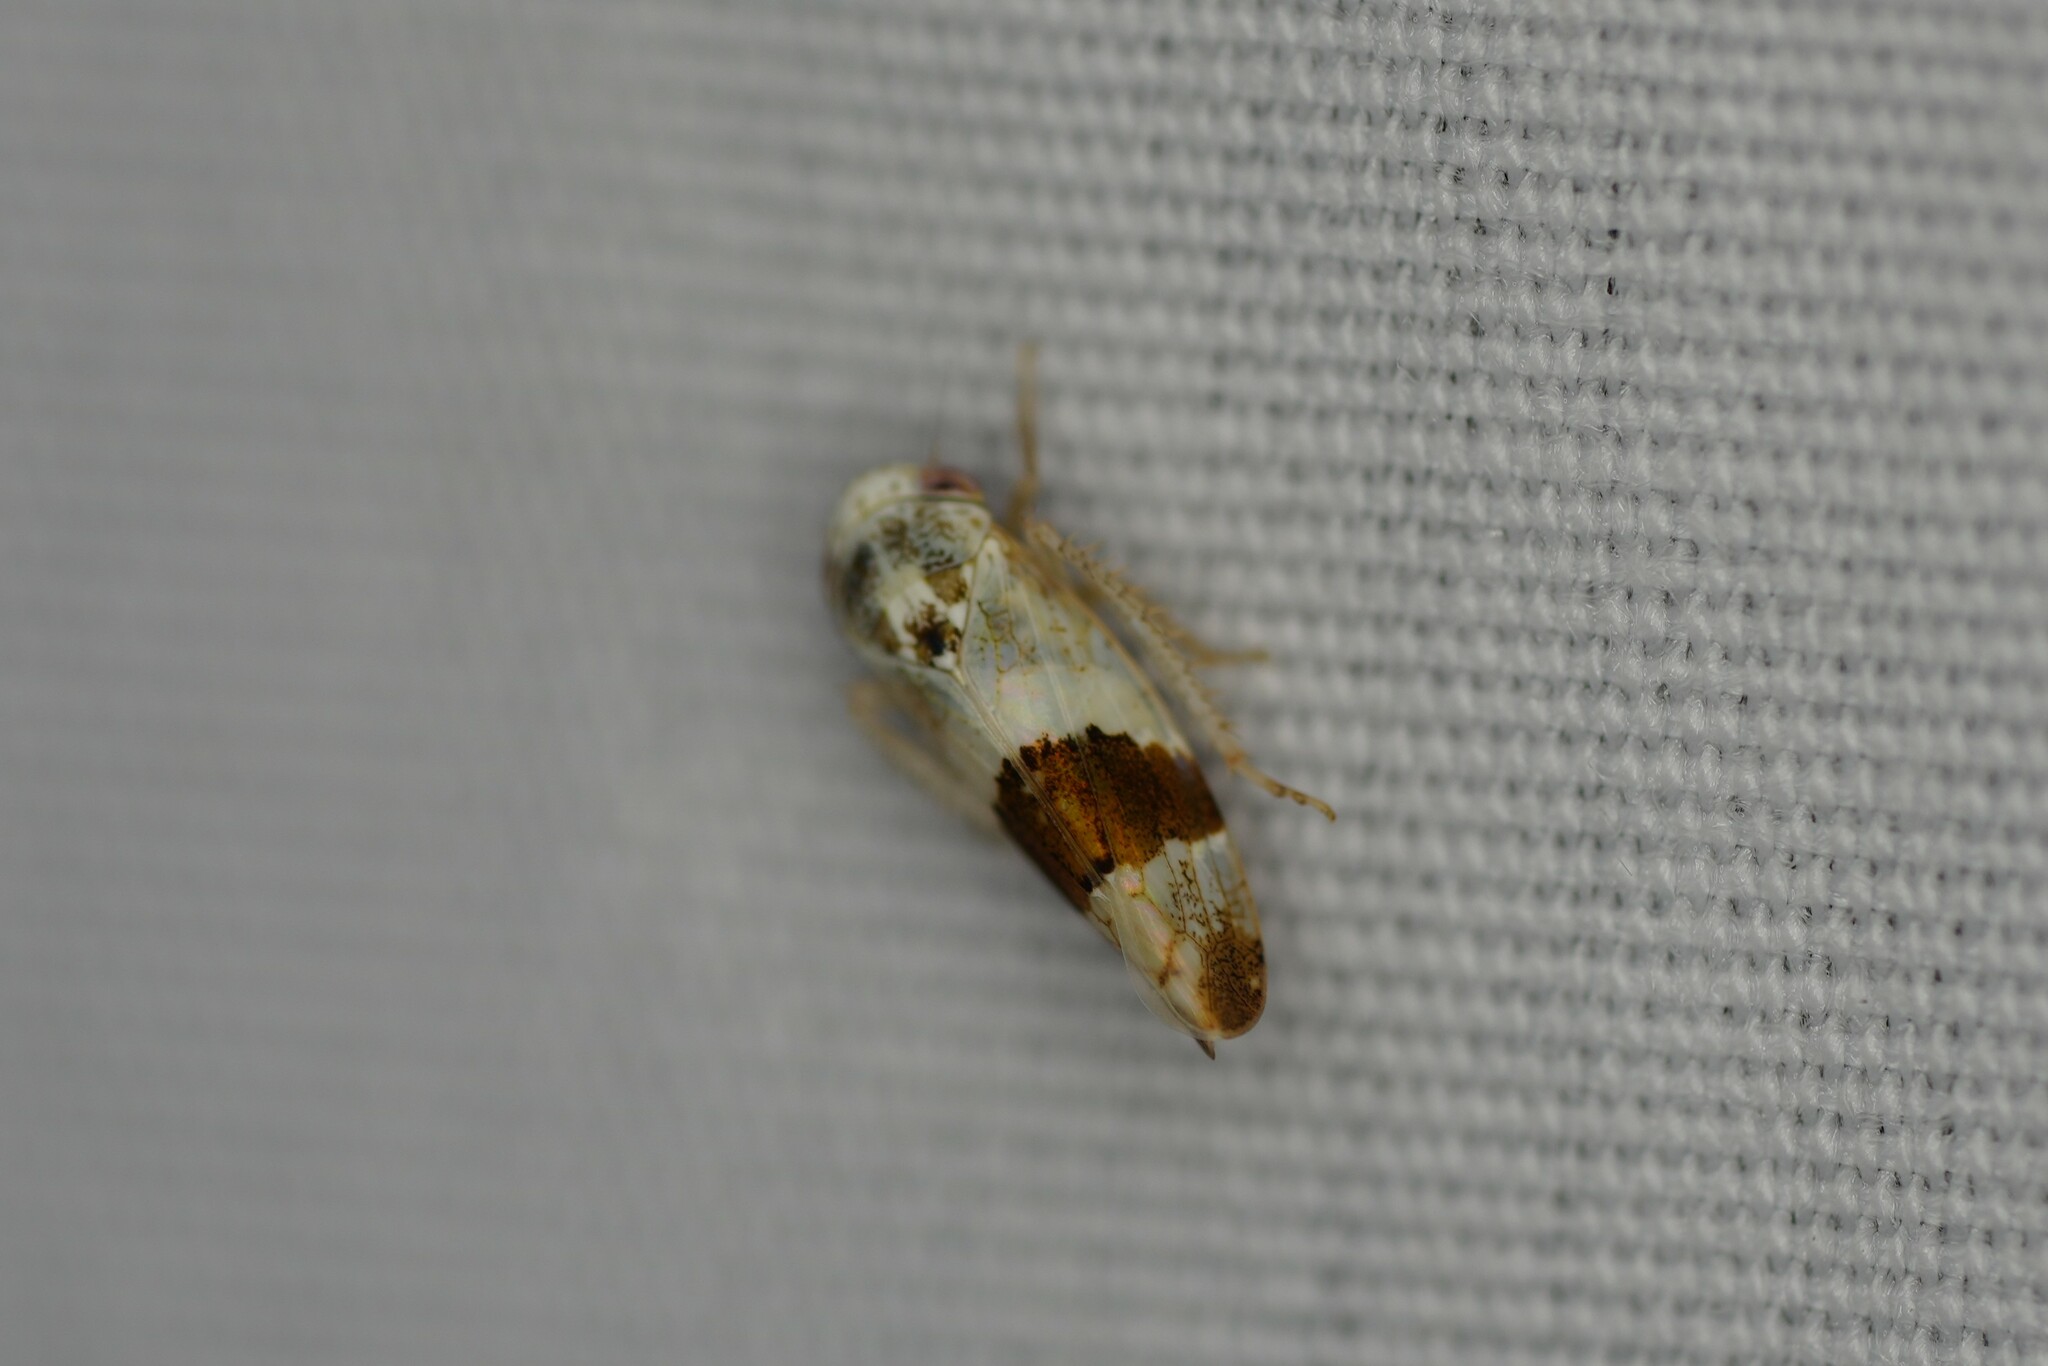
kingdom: Animalia
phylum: Arthropoda
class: Insecta
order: Hemiptera
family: Cicadellidae
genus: Norvellina
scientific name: Norvellina seminuda
